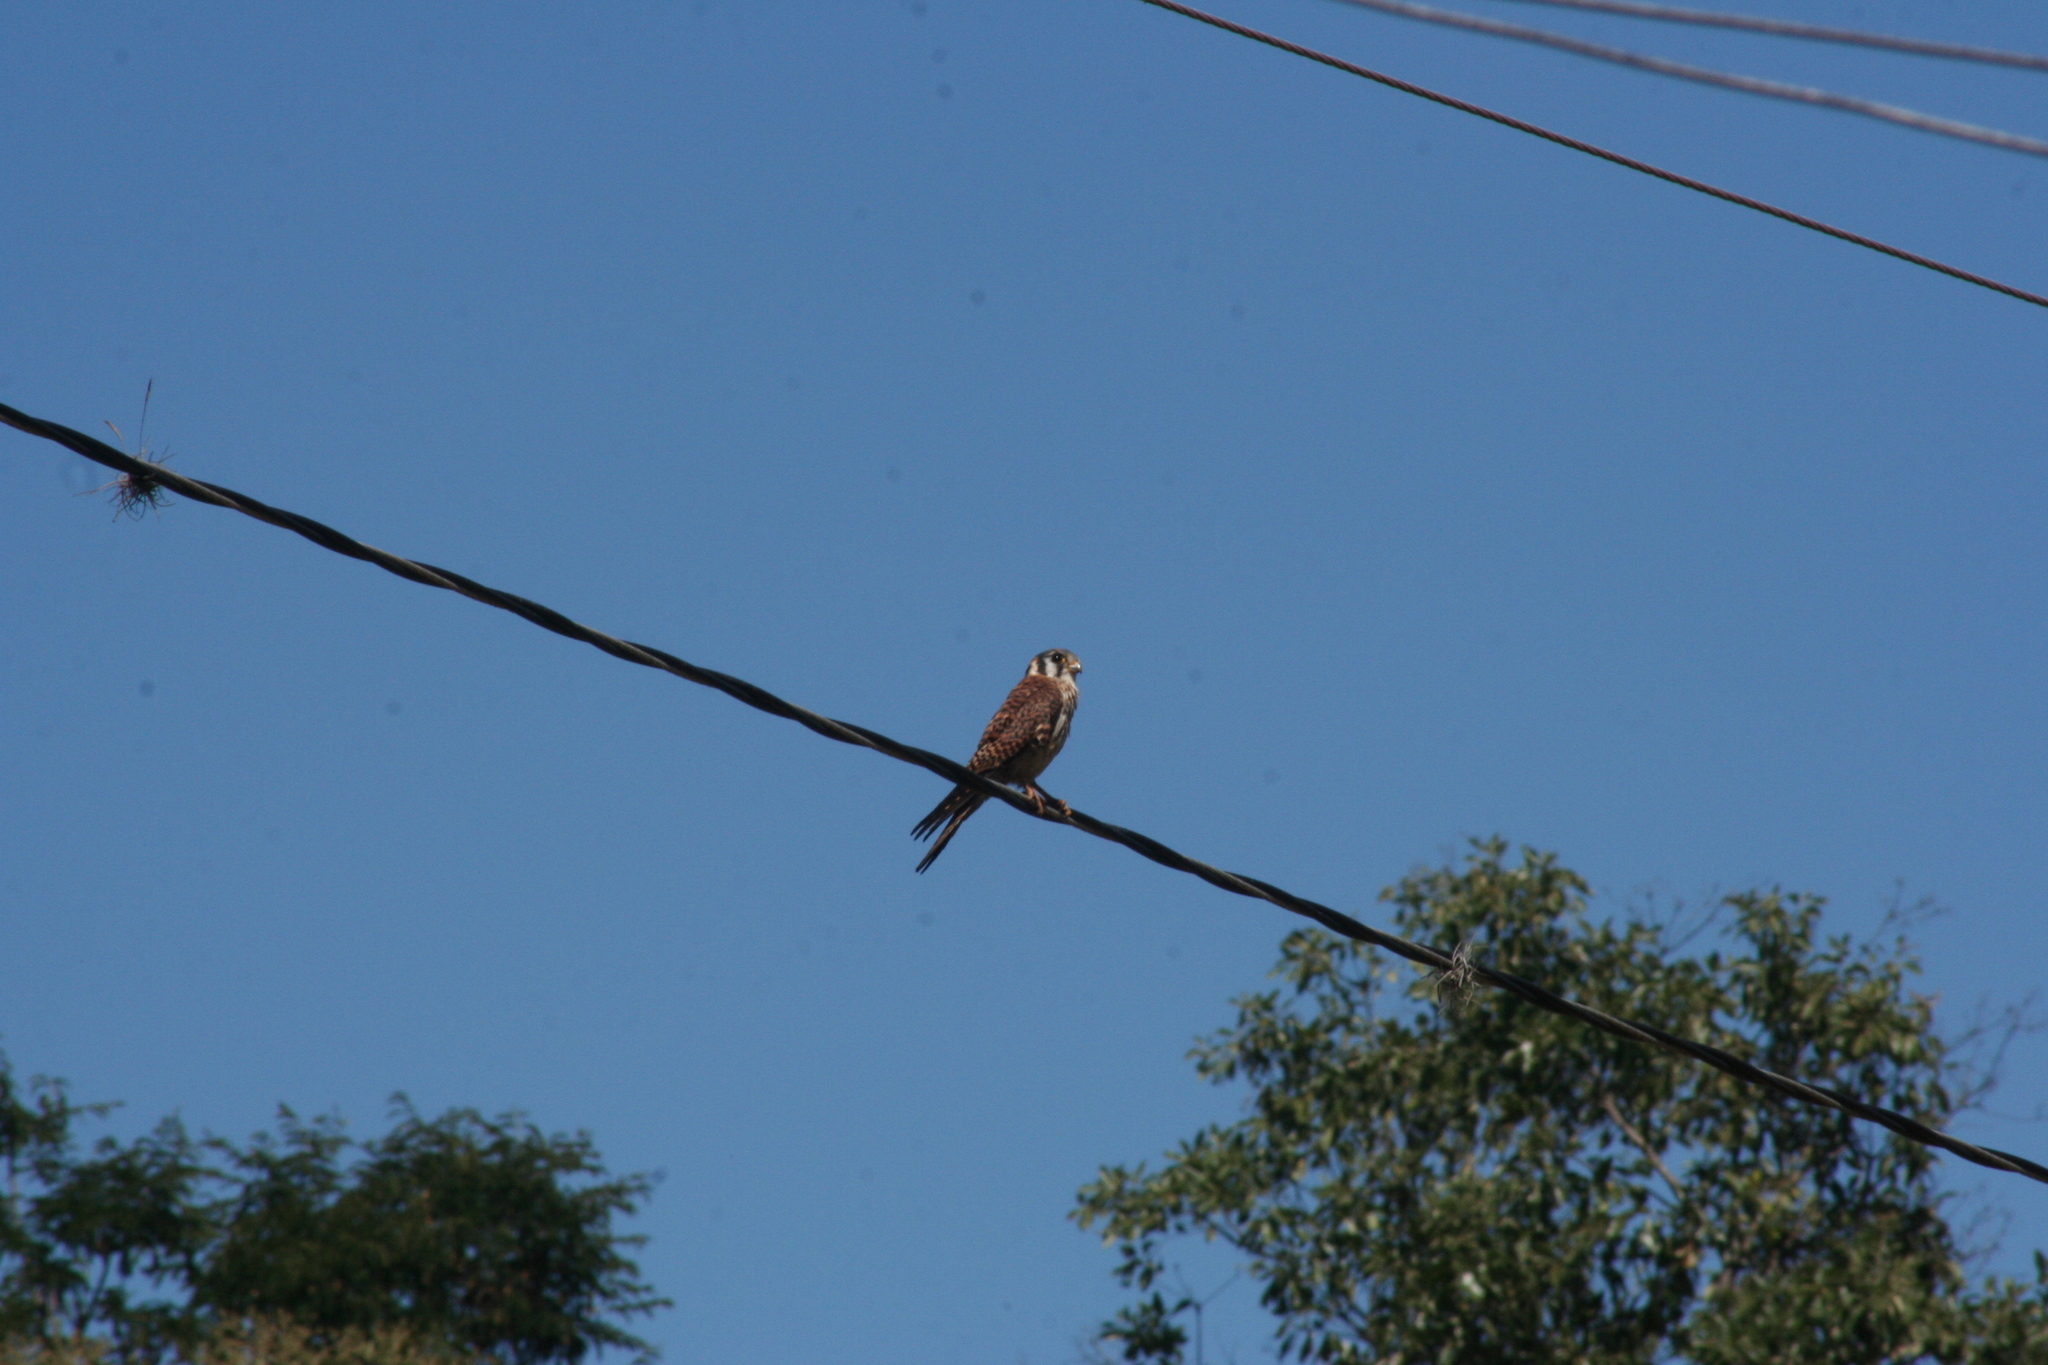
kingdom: Animalia
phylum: Chordata
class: Aves
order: Falconiformes
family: Falconidae
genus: Falco
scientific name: Falco sparverius
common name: American kestrel
